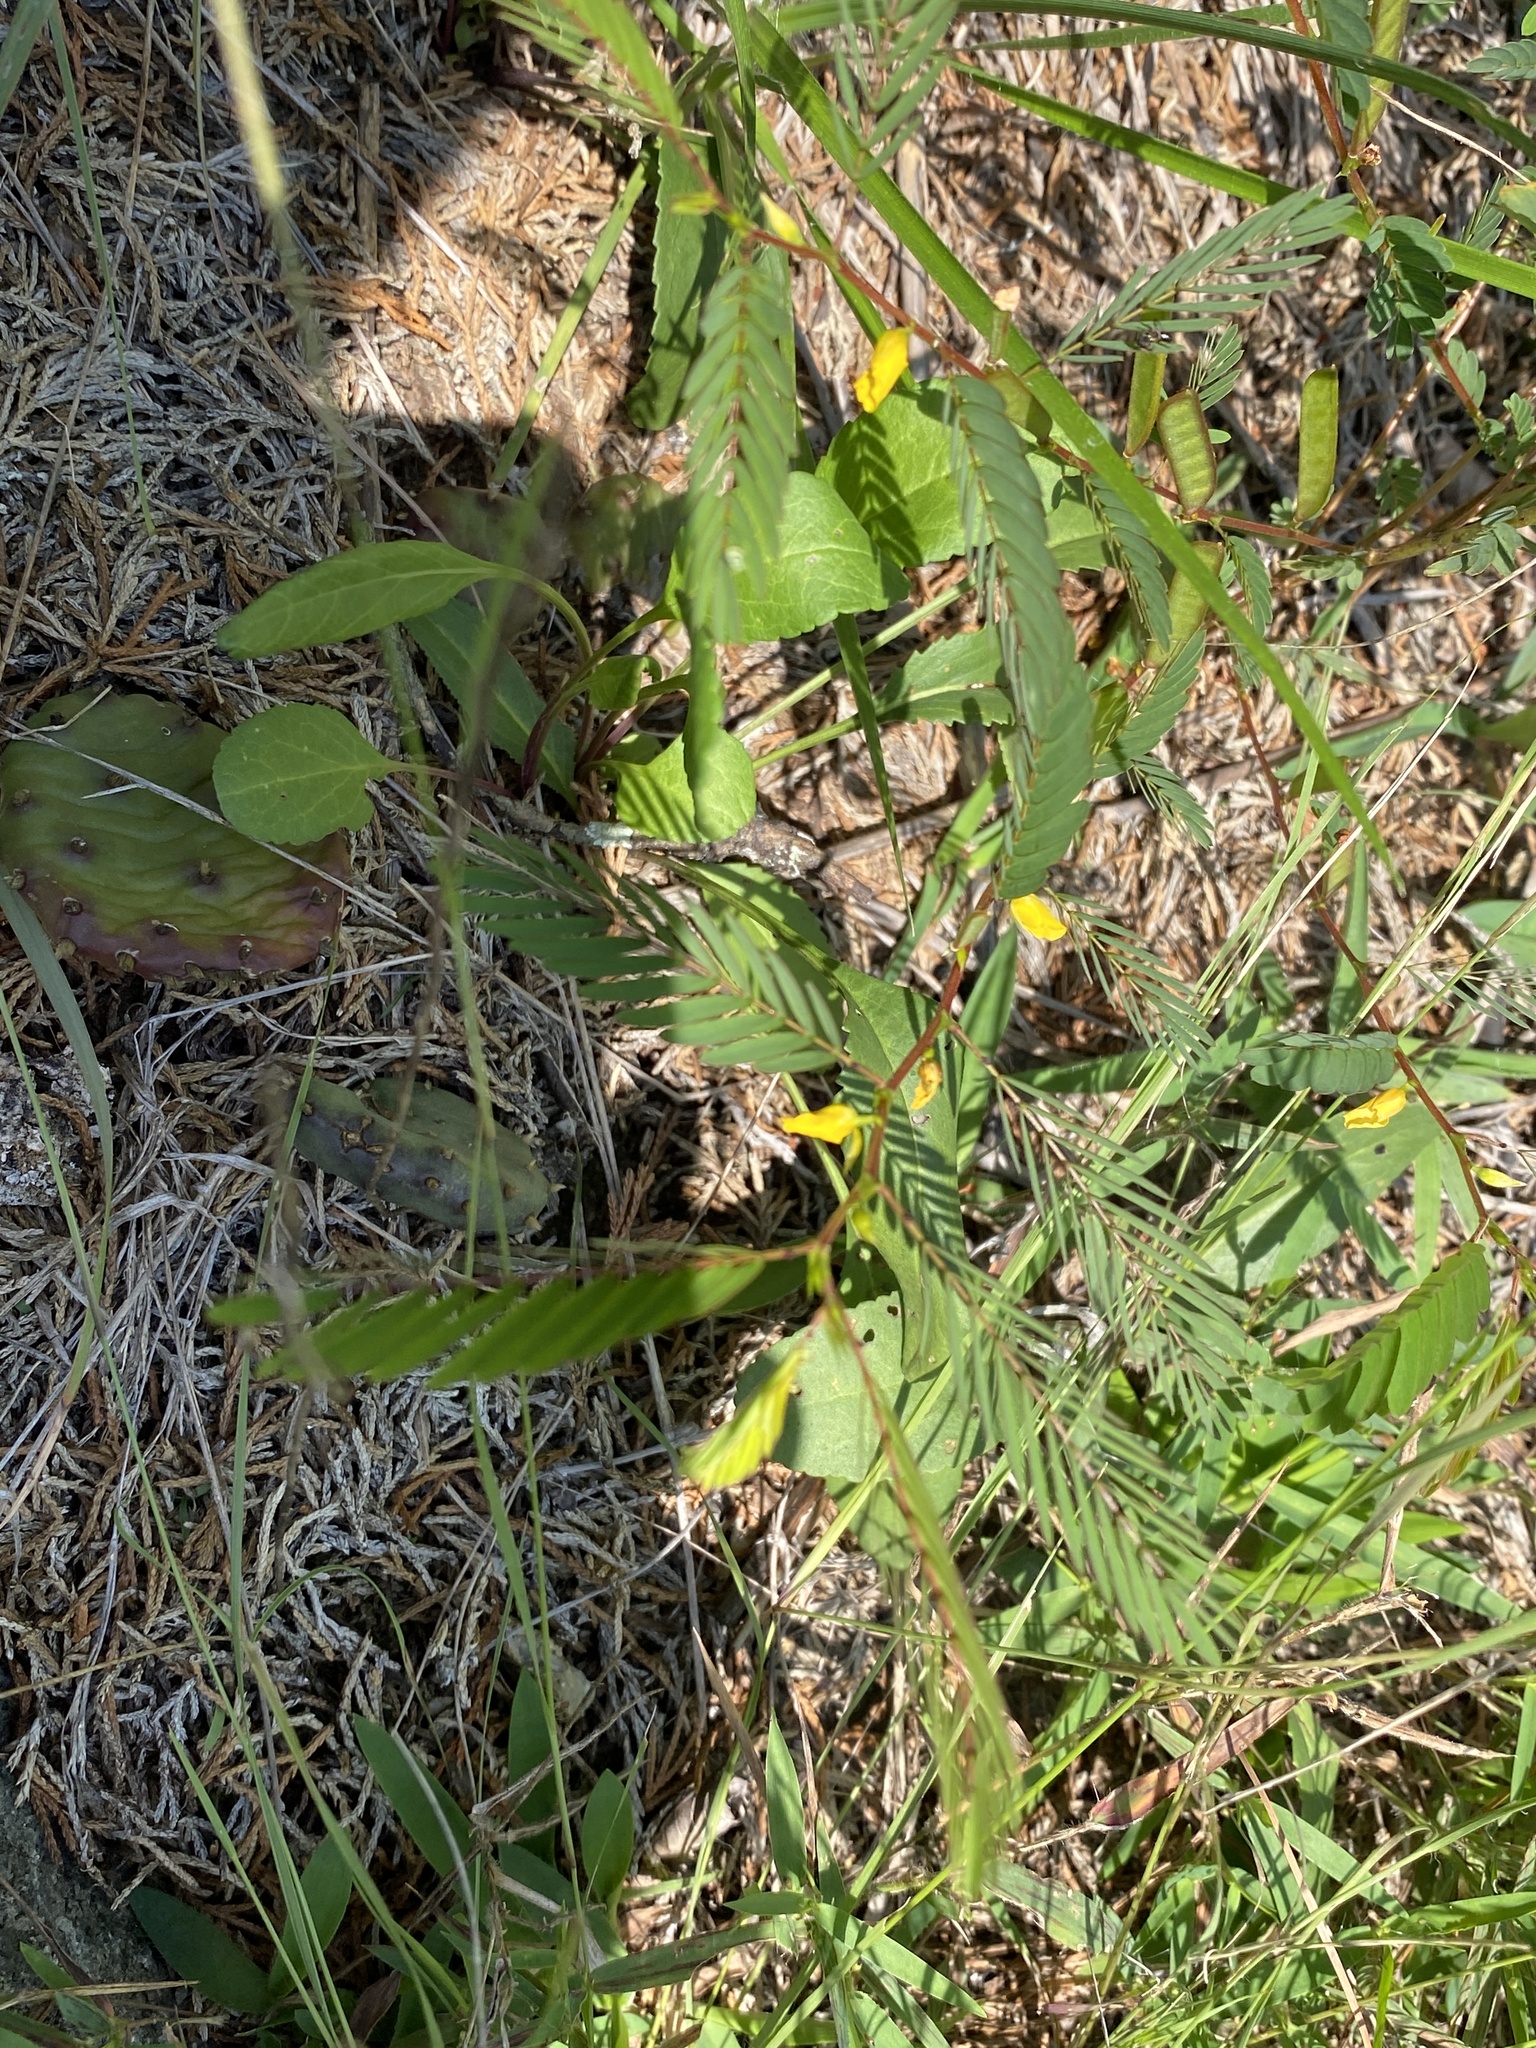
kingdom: Plantae
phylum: Tracheophyta
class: Magnoliopsida
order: Fabales
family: Fabaceae
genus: Chamaecrista
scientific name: Chamaecrista nictitans
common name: Sensitive cassia
